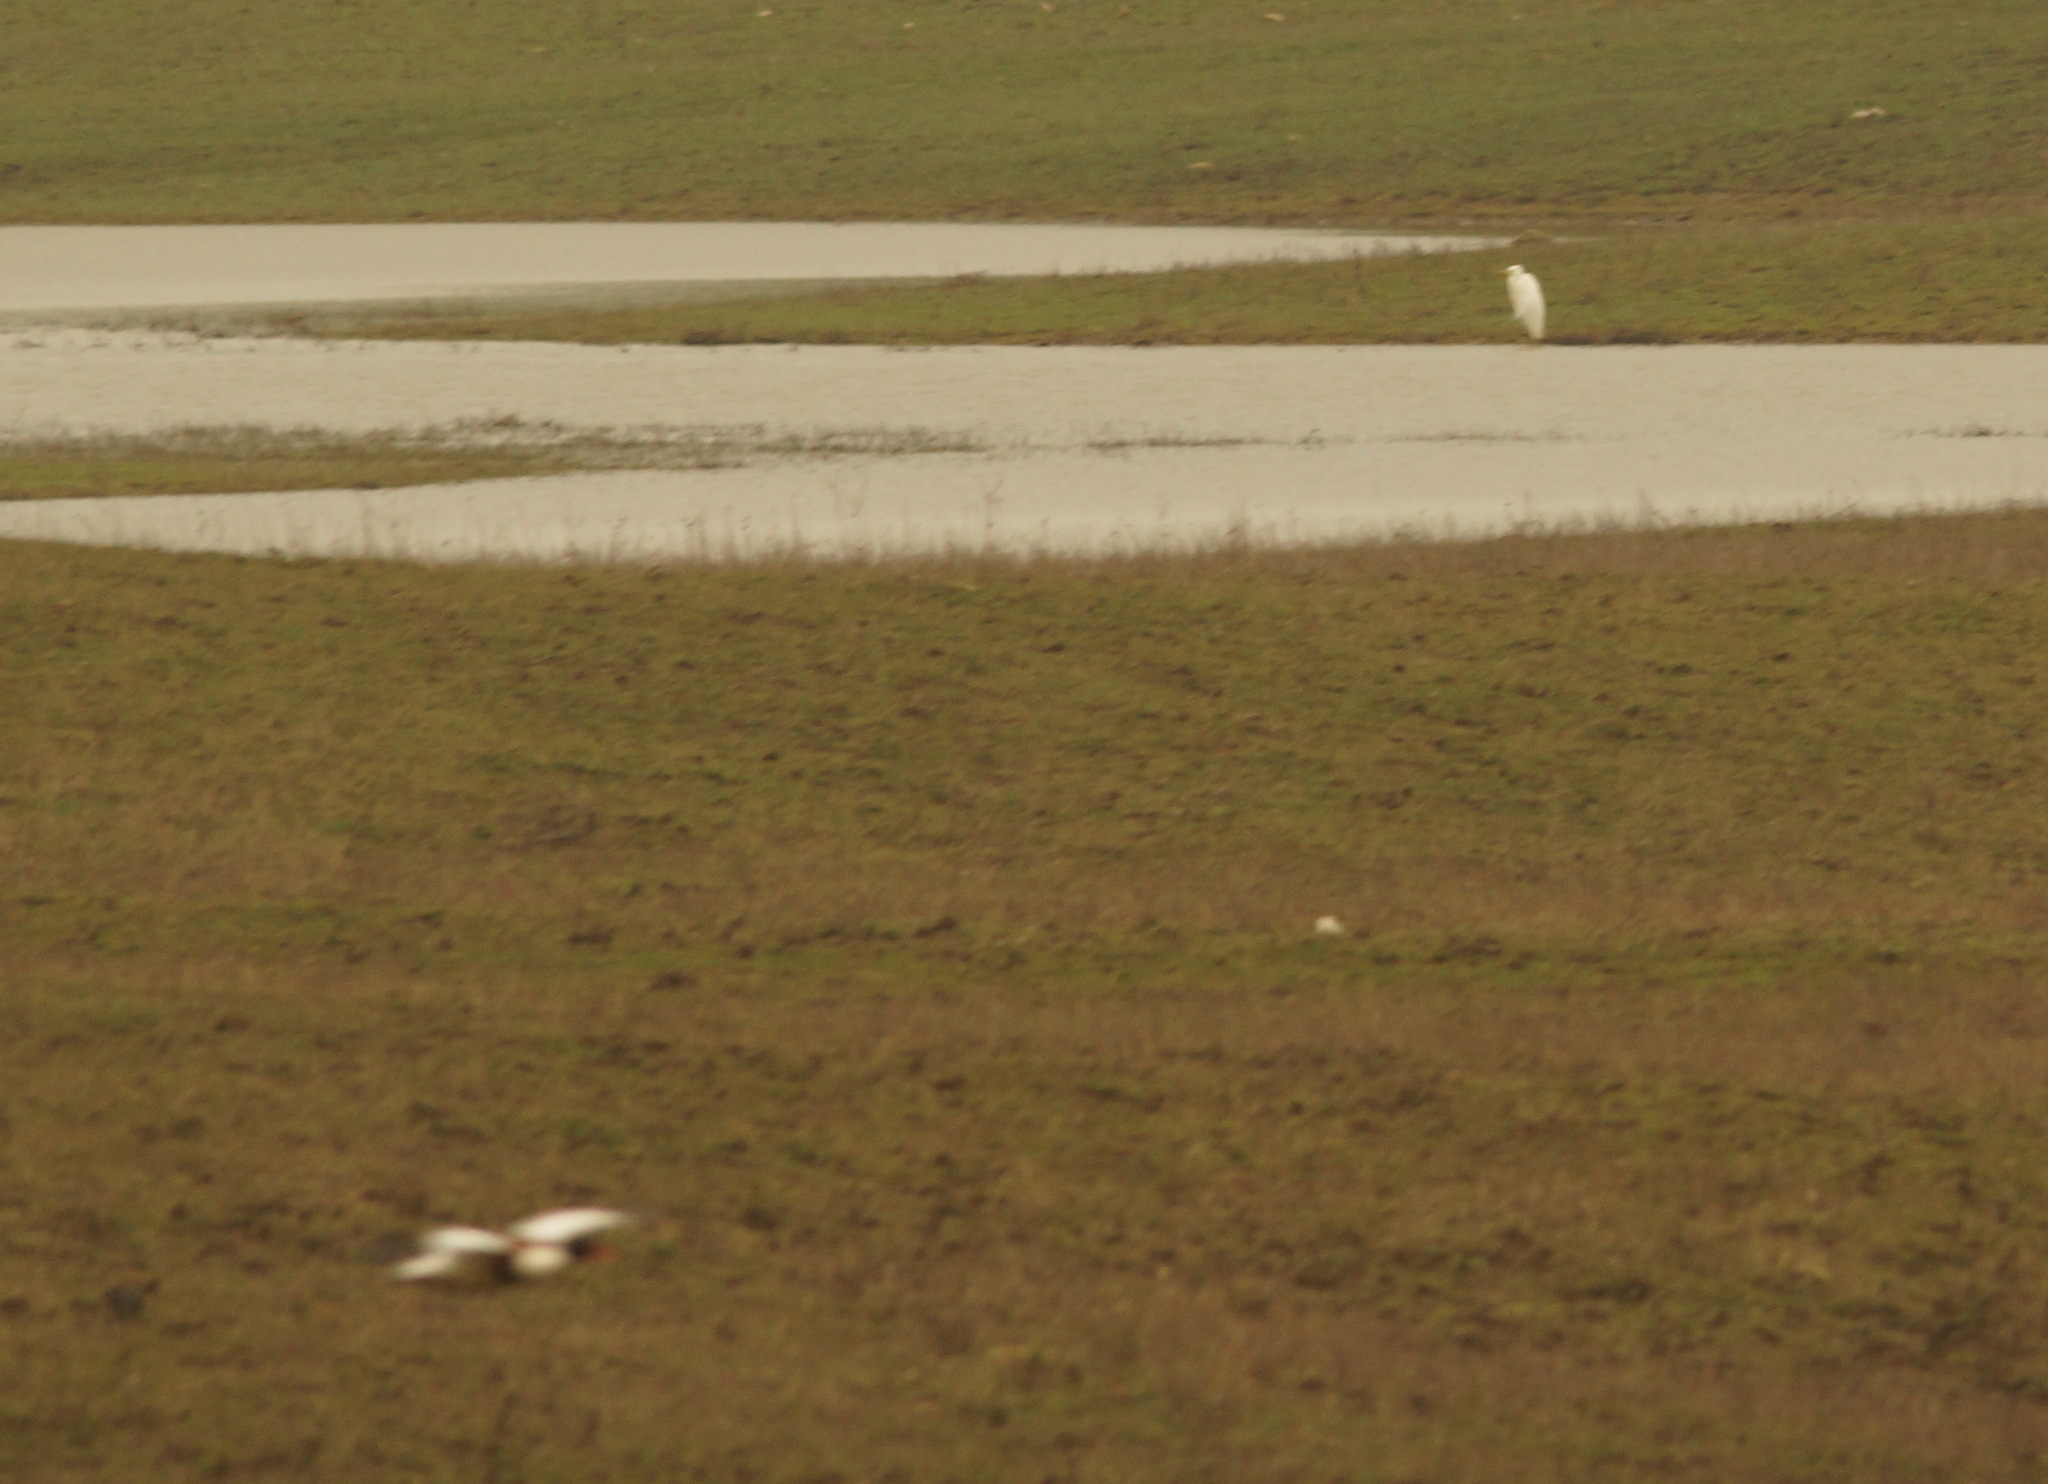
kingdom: Animalia
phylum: Chordata
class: Aves
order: Pelecaniformes
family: Ardeidae
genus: Ardea
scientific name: Ardea alba
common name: Great egret
